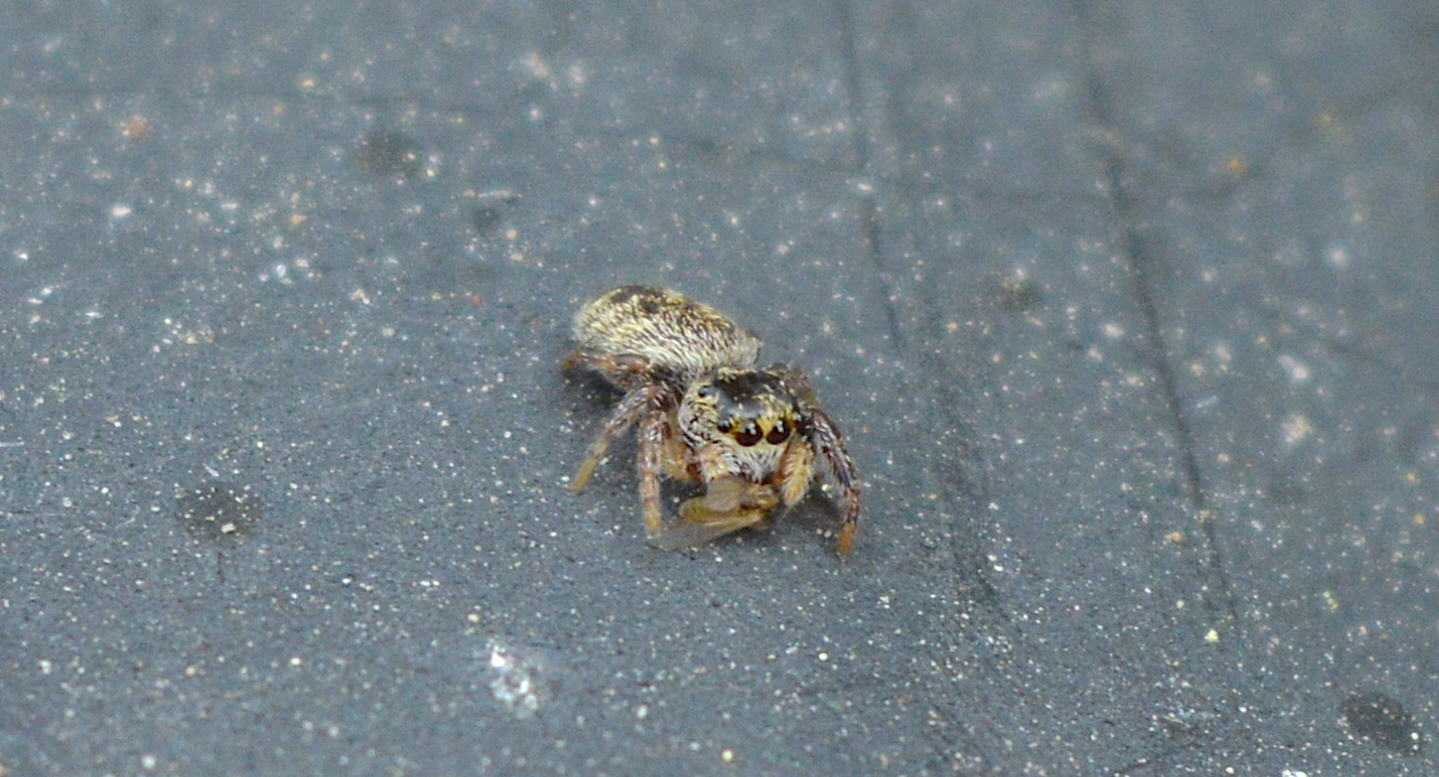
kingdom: Animalia
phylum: Arthropoda
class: Arachnida
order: Araneae
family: Salticidae
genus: Eris
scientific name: Eris militaris
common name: Bronze jumper
